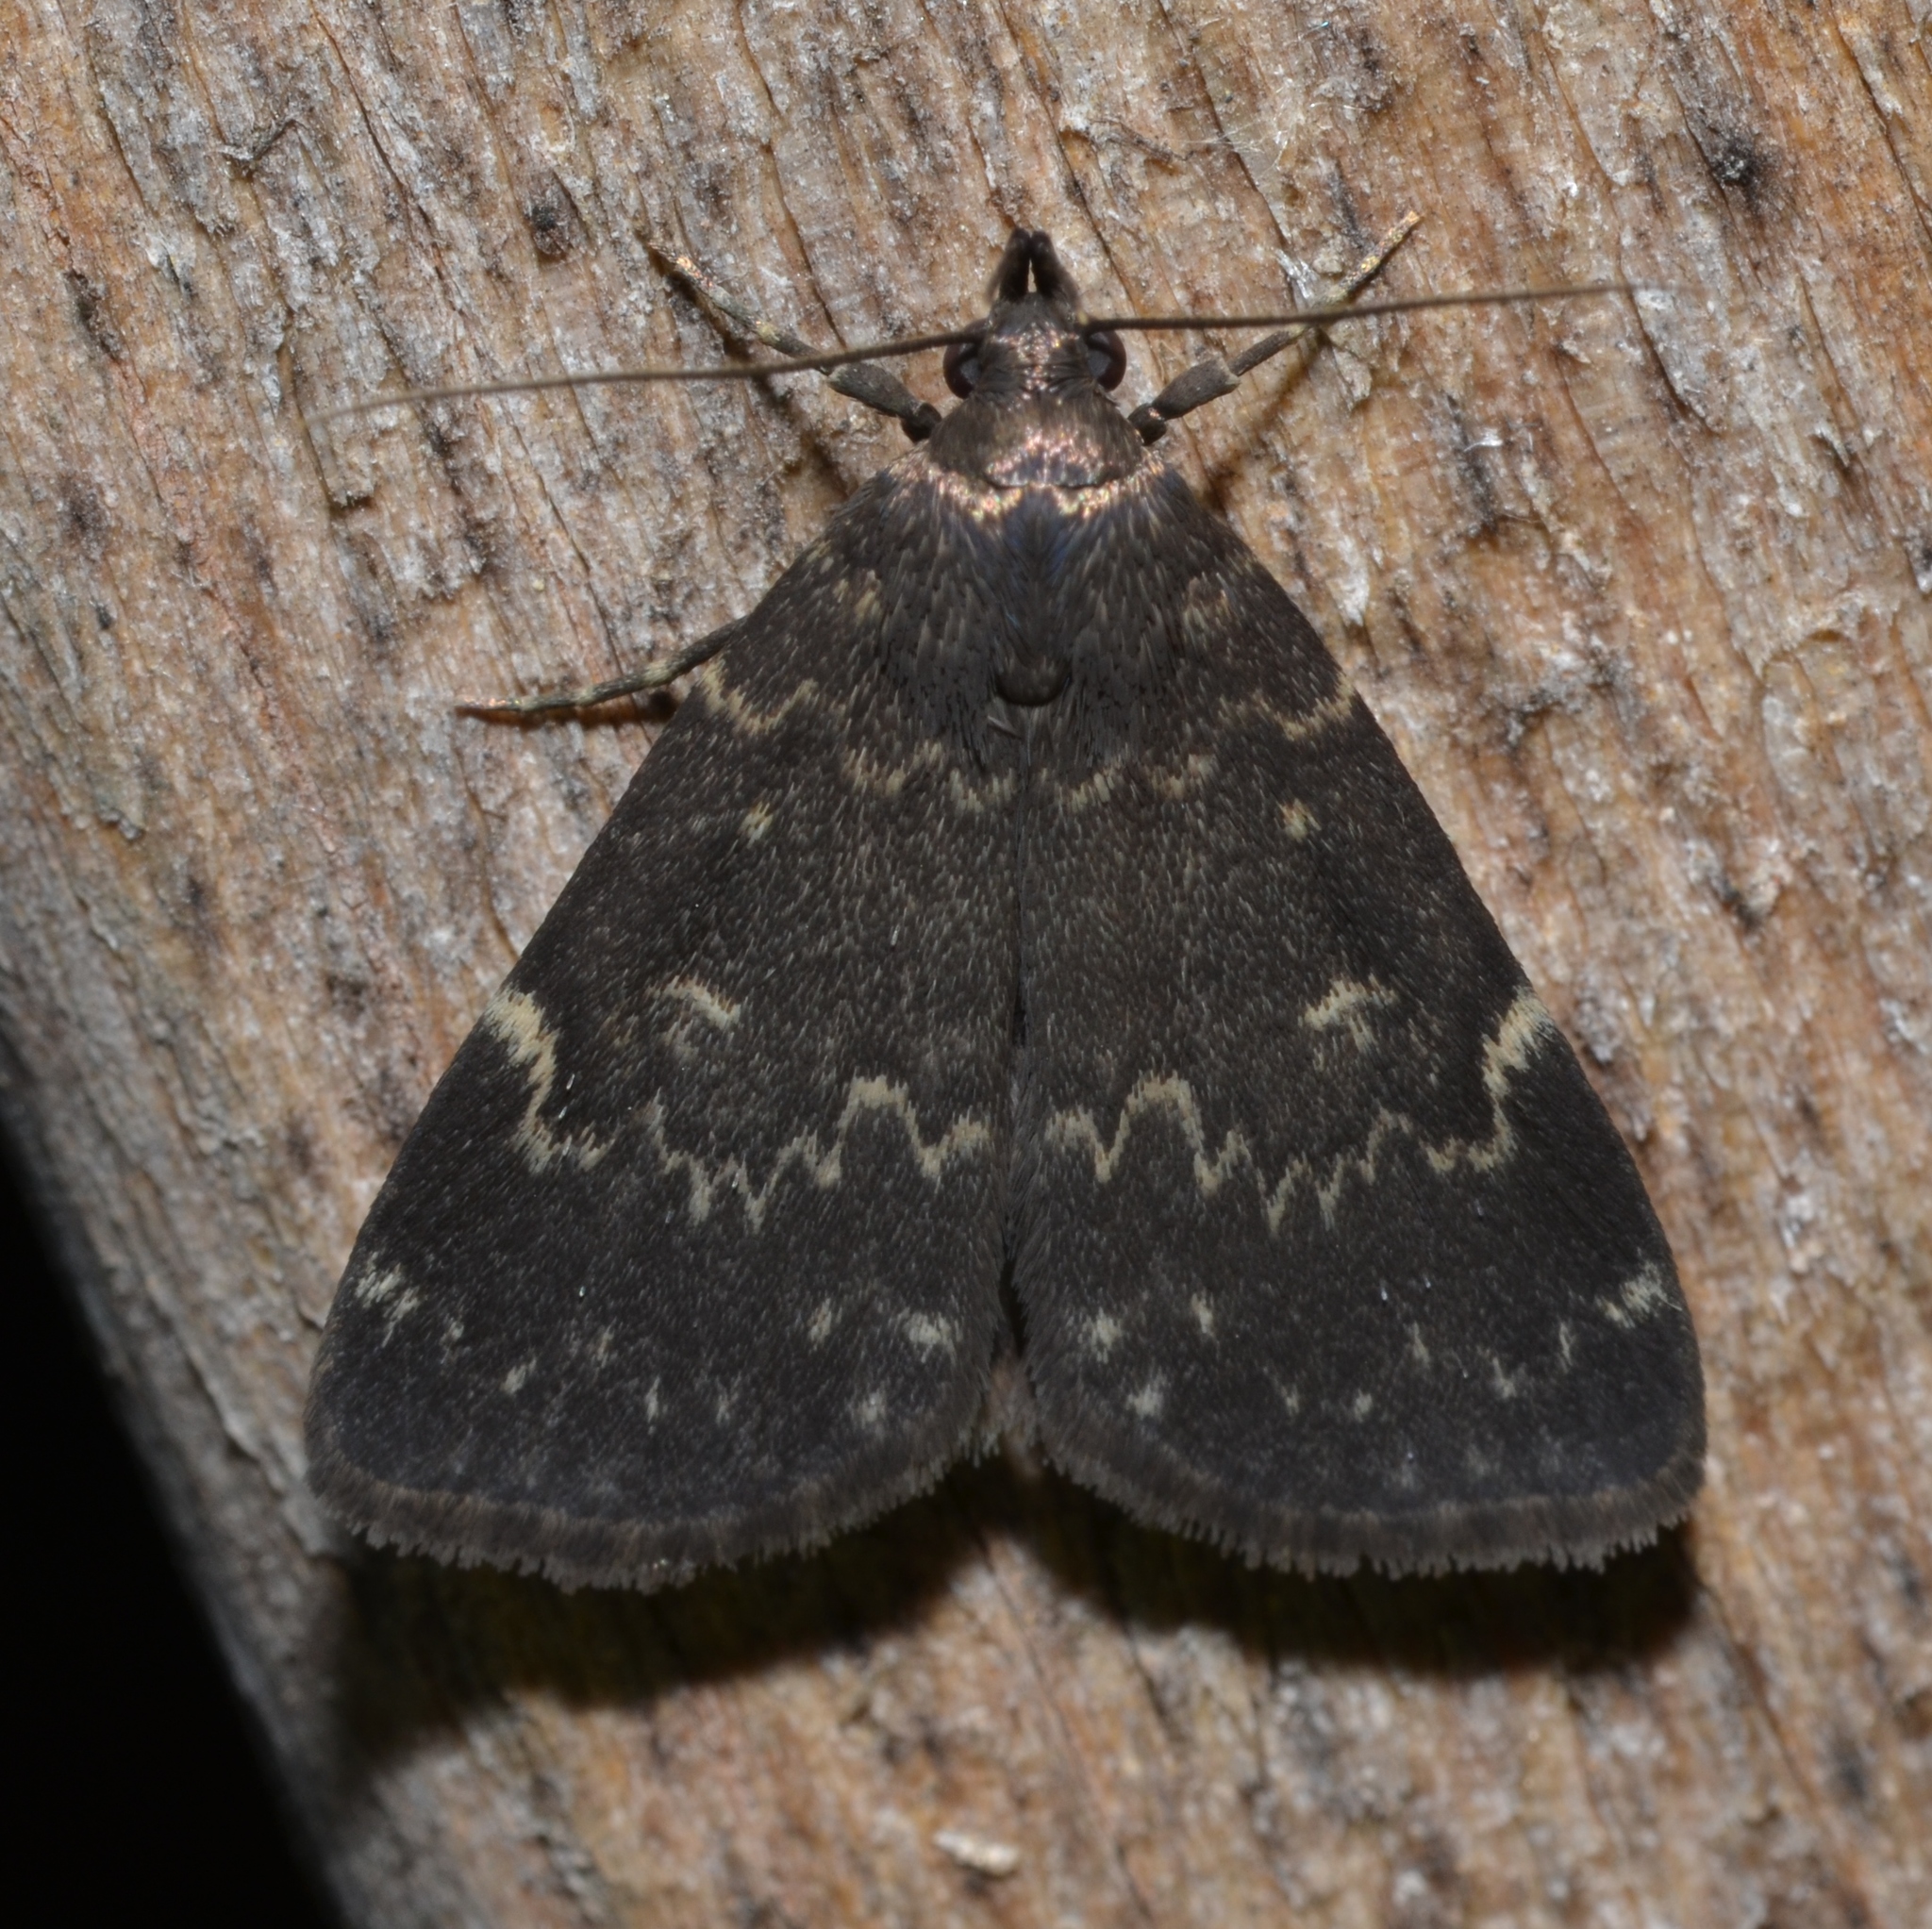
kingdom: Animalia
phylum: Arthropoda
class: Insecta
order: Lepidoptera
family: Erebidae
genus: Idia
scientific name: Idia lubricalis
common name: Twin-striped tabby
